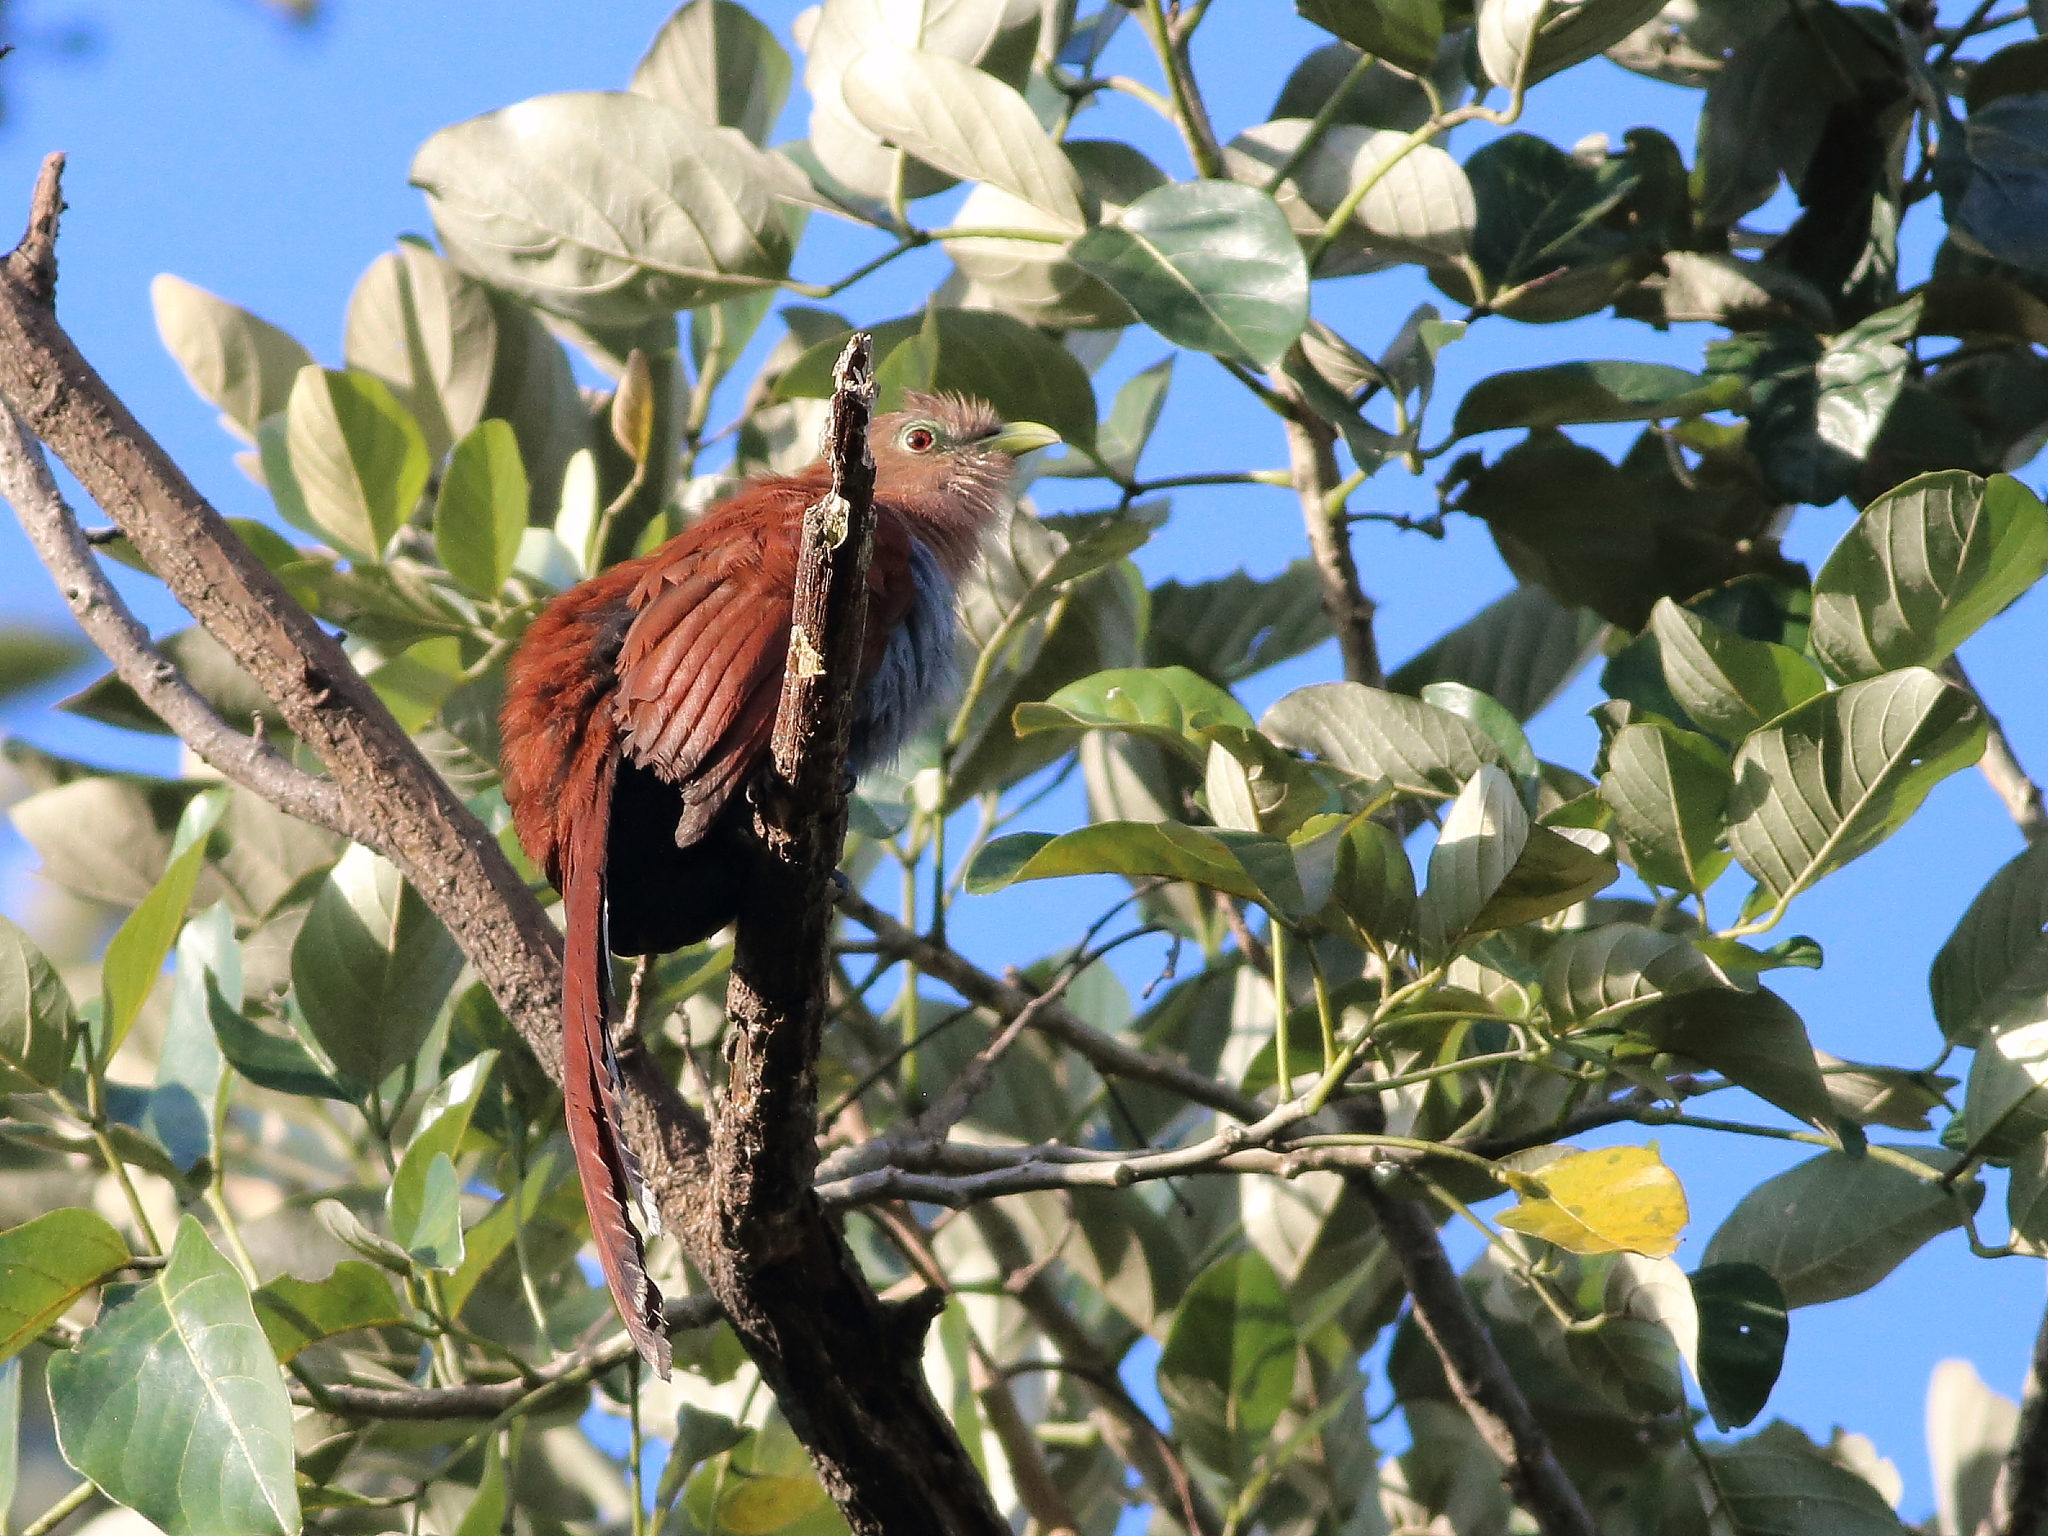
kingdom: Animalia
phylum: Chordata
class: Aves
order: Cuculiformes
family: Cuculidae
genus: Piaya
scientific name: Piaya cayana
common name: Squirrel cuckoo
